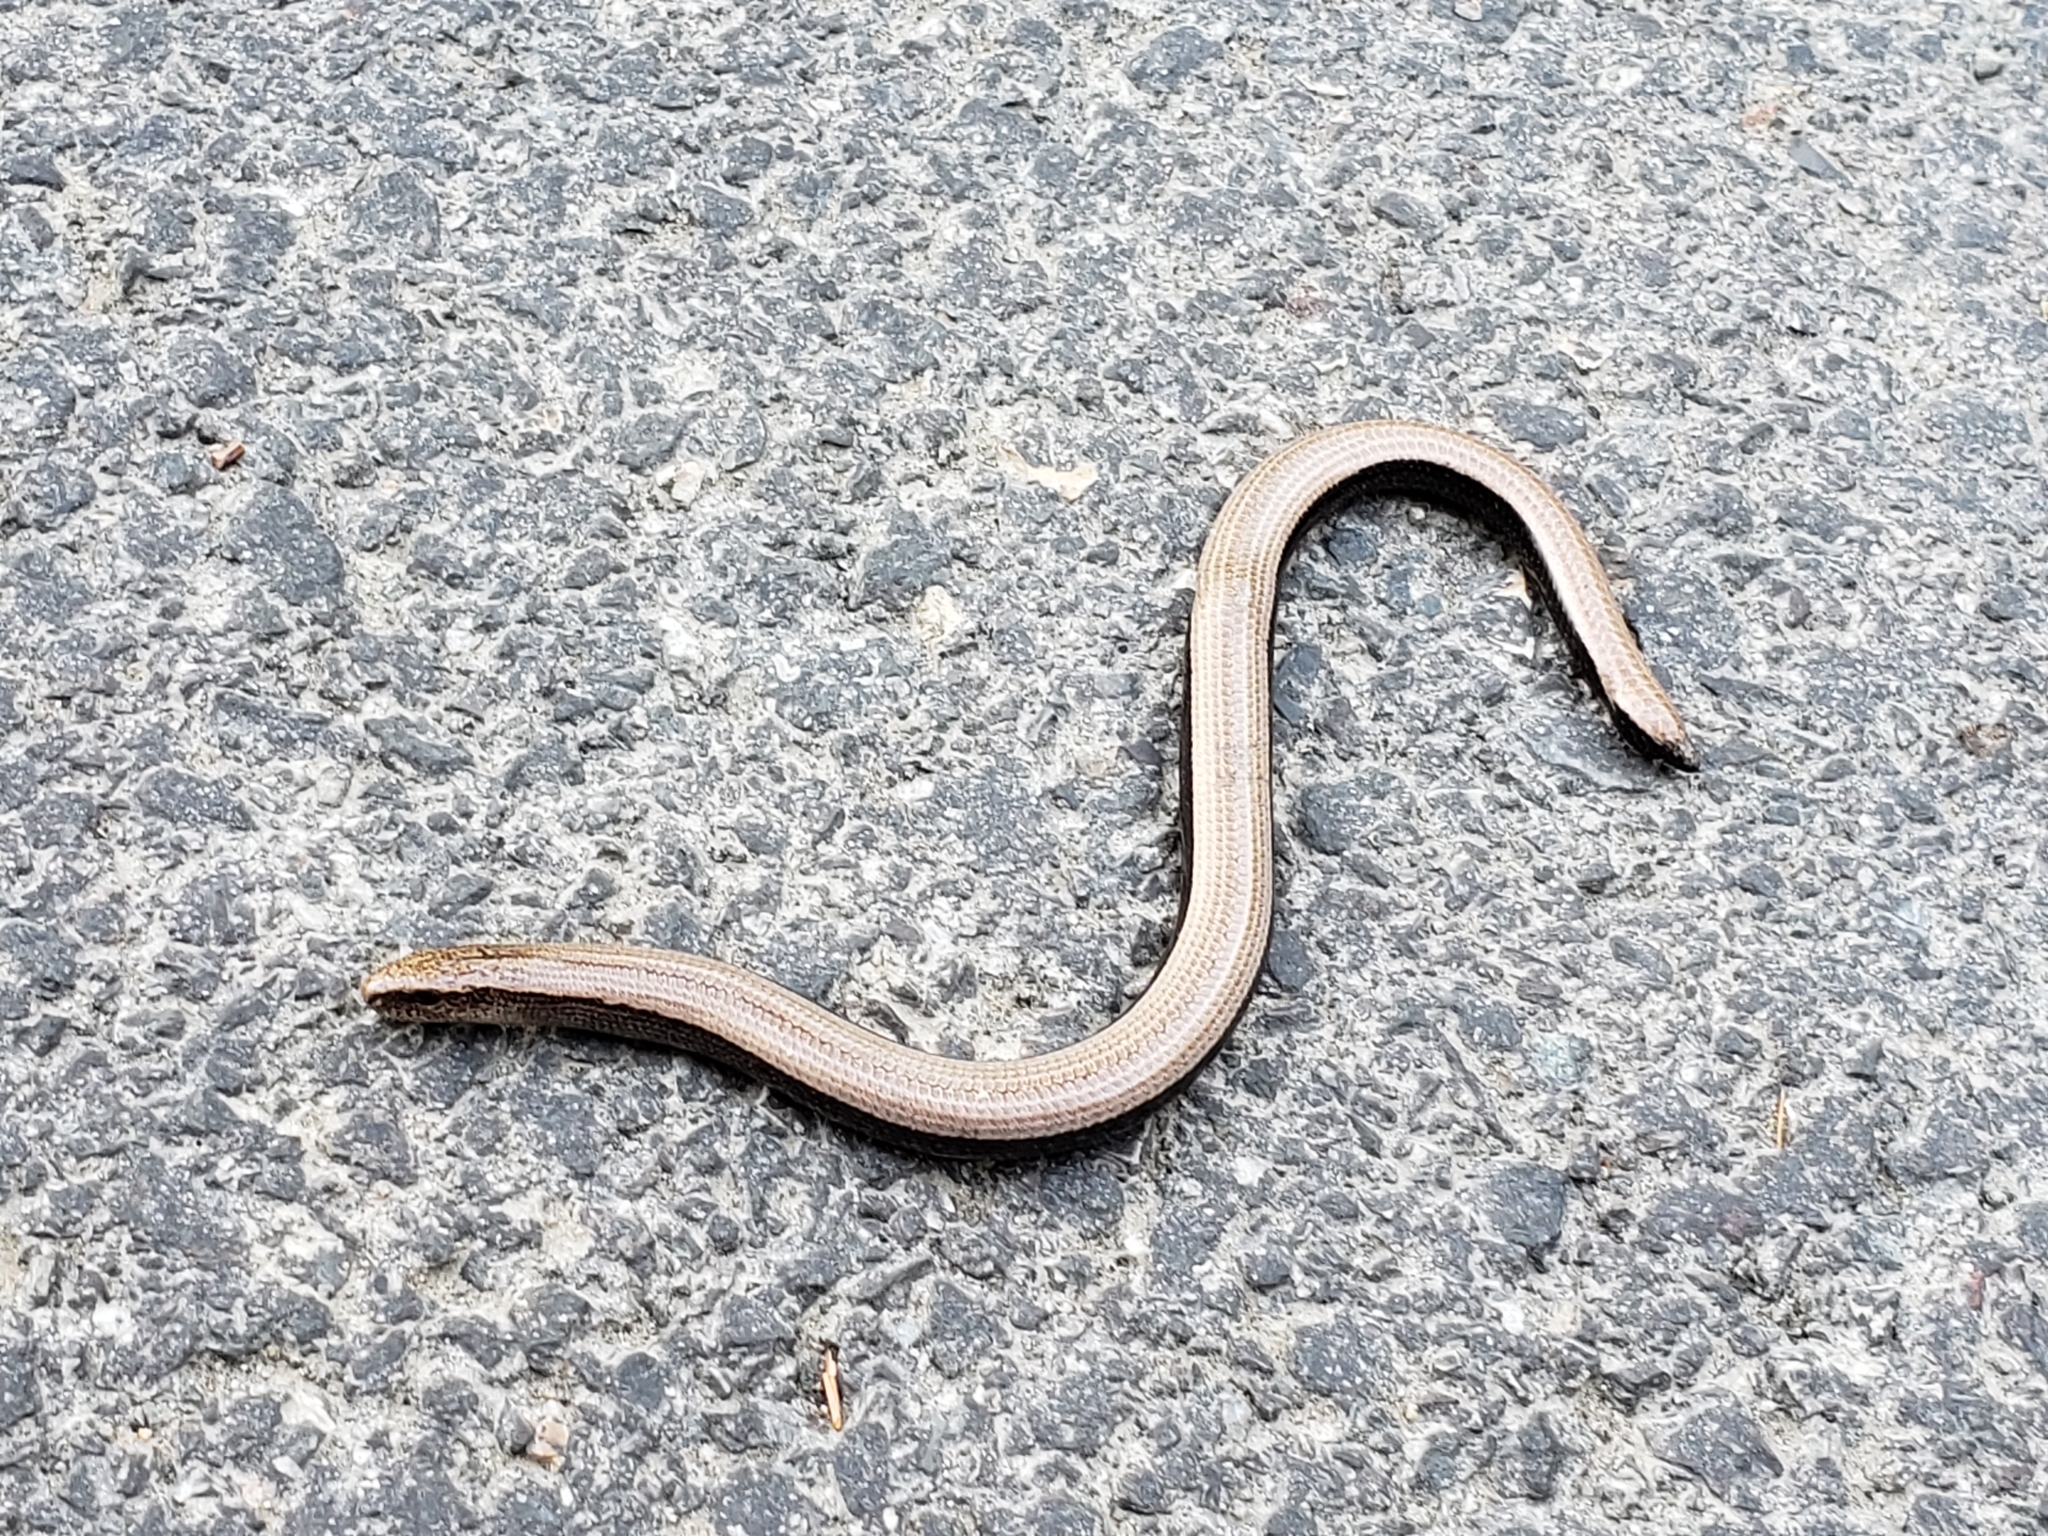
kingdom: Animalia
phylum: Chordata
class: Squamata
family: Anguidae
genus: Anguis
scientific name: Anguis veronensis
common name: Italian slow worm
